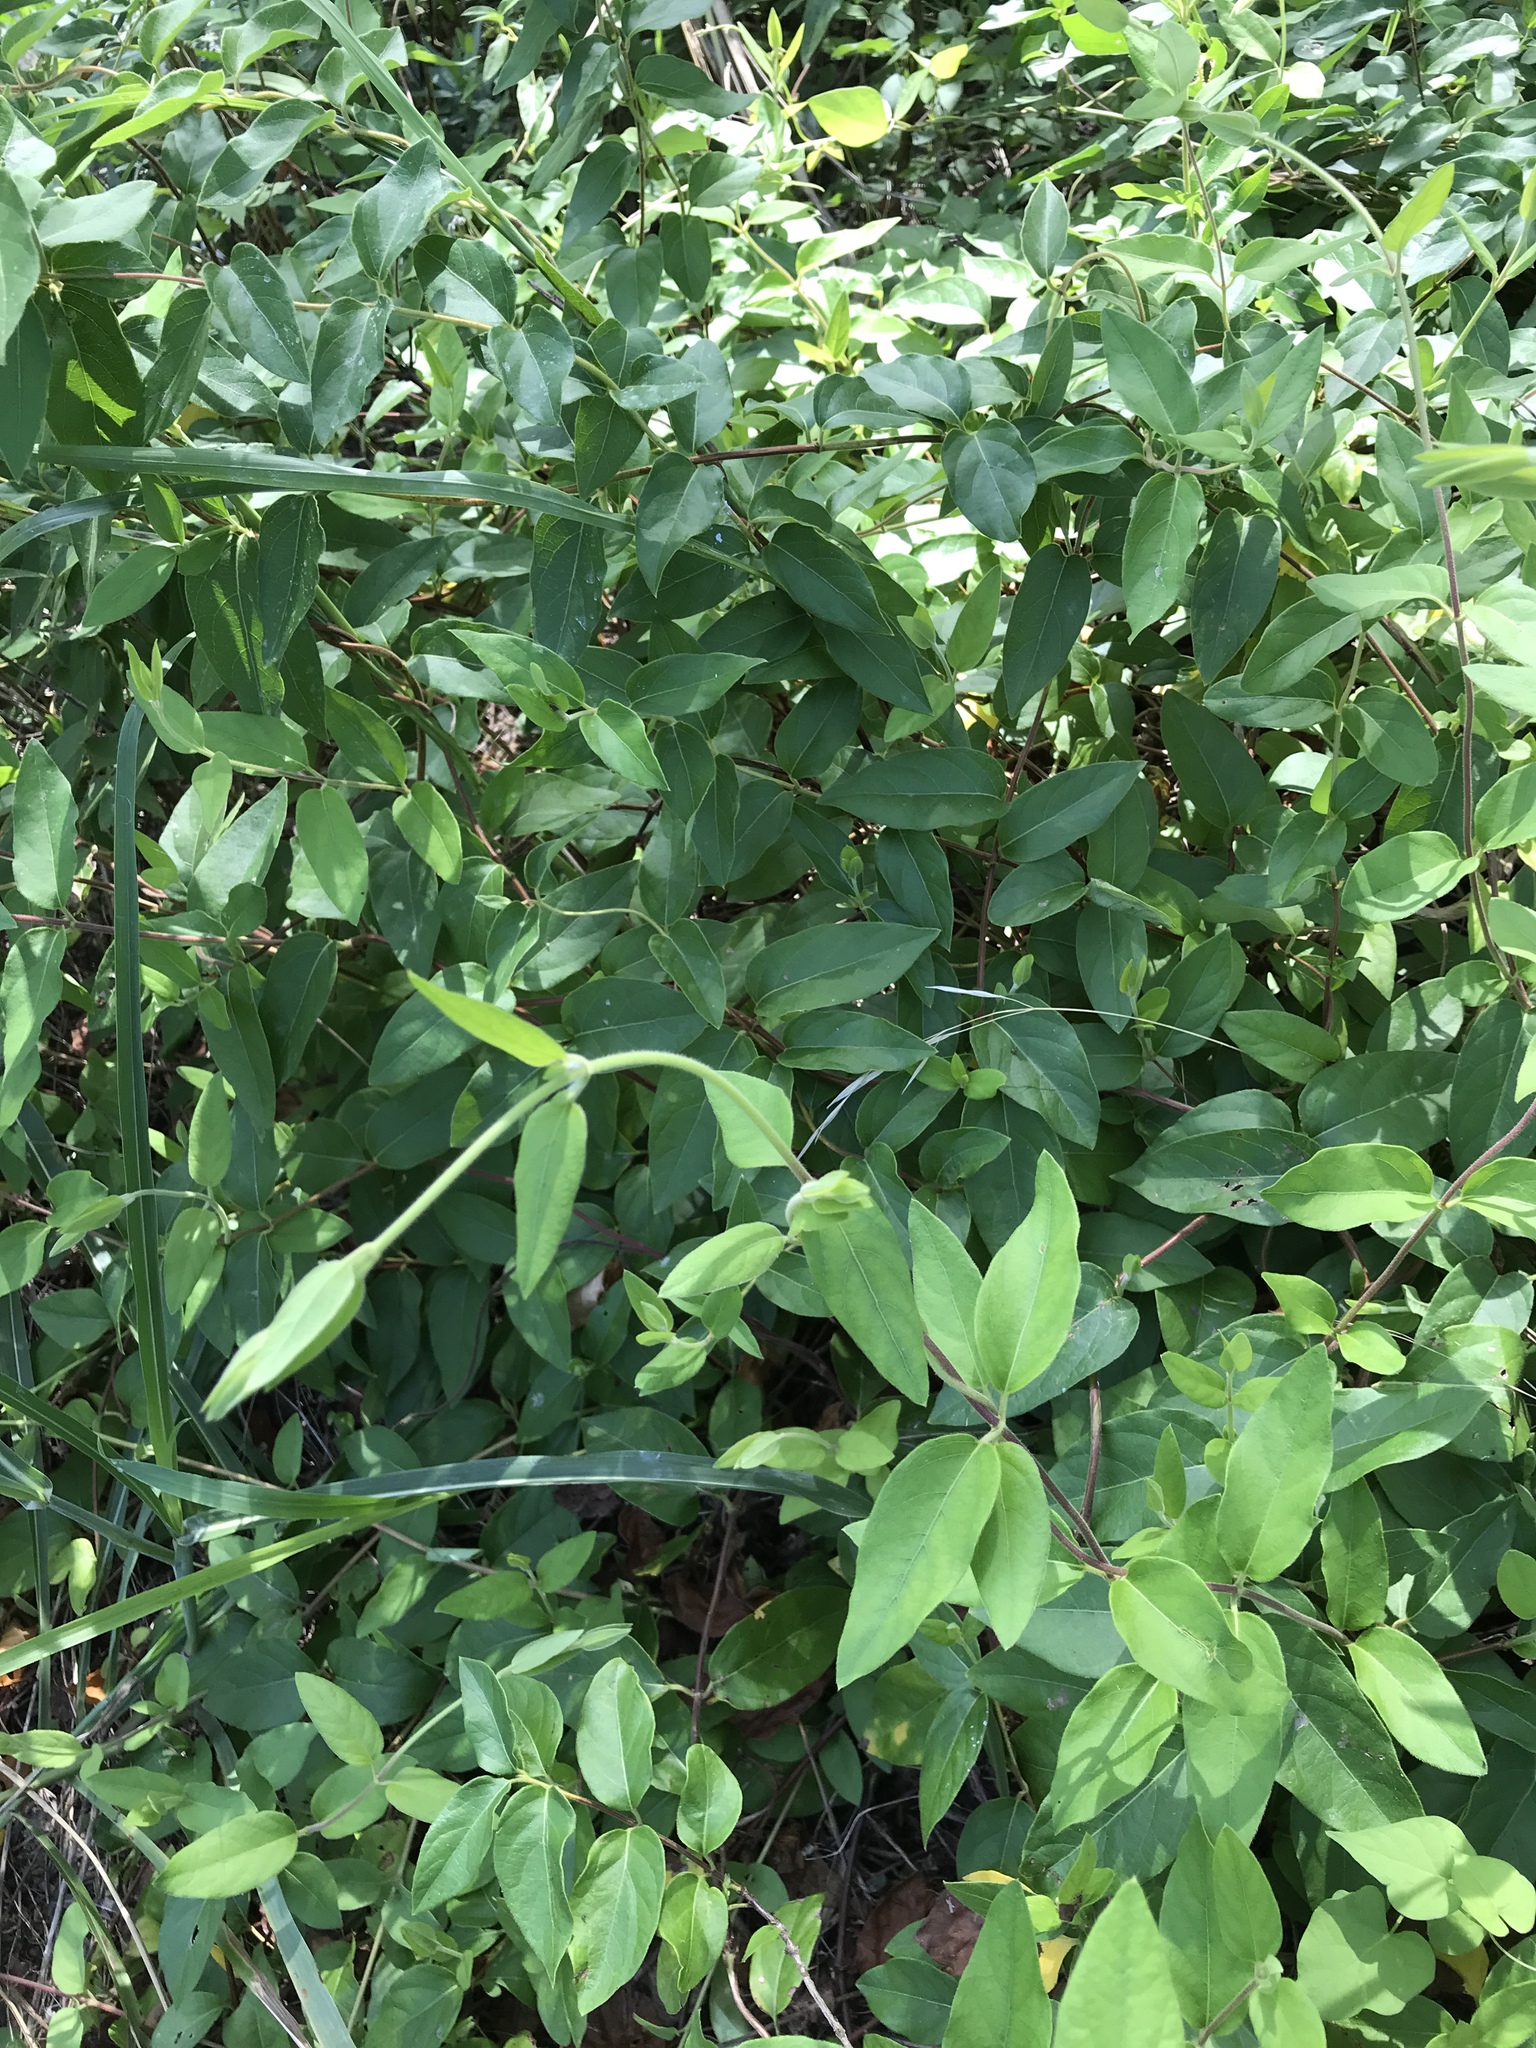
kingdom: Plantae
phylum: Tracheophyta
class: Magnoliopsida
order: Dipsacales
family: Caprifoliaceae
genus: Lonicera
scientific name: Lonicera japonica
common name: Japanese honeysuckle
